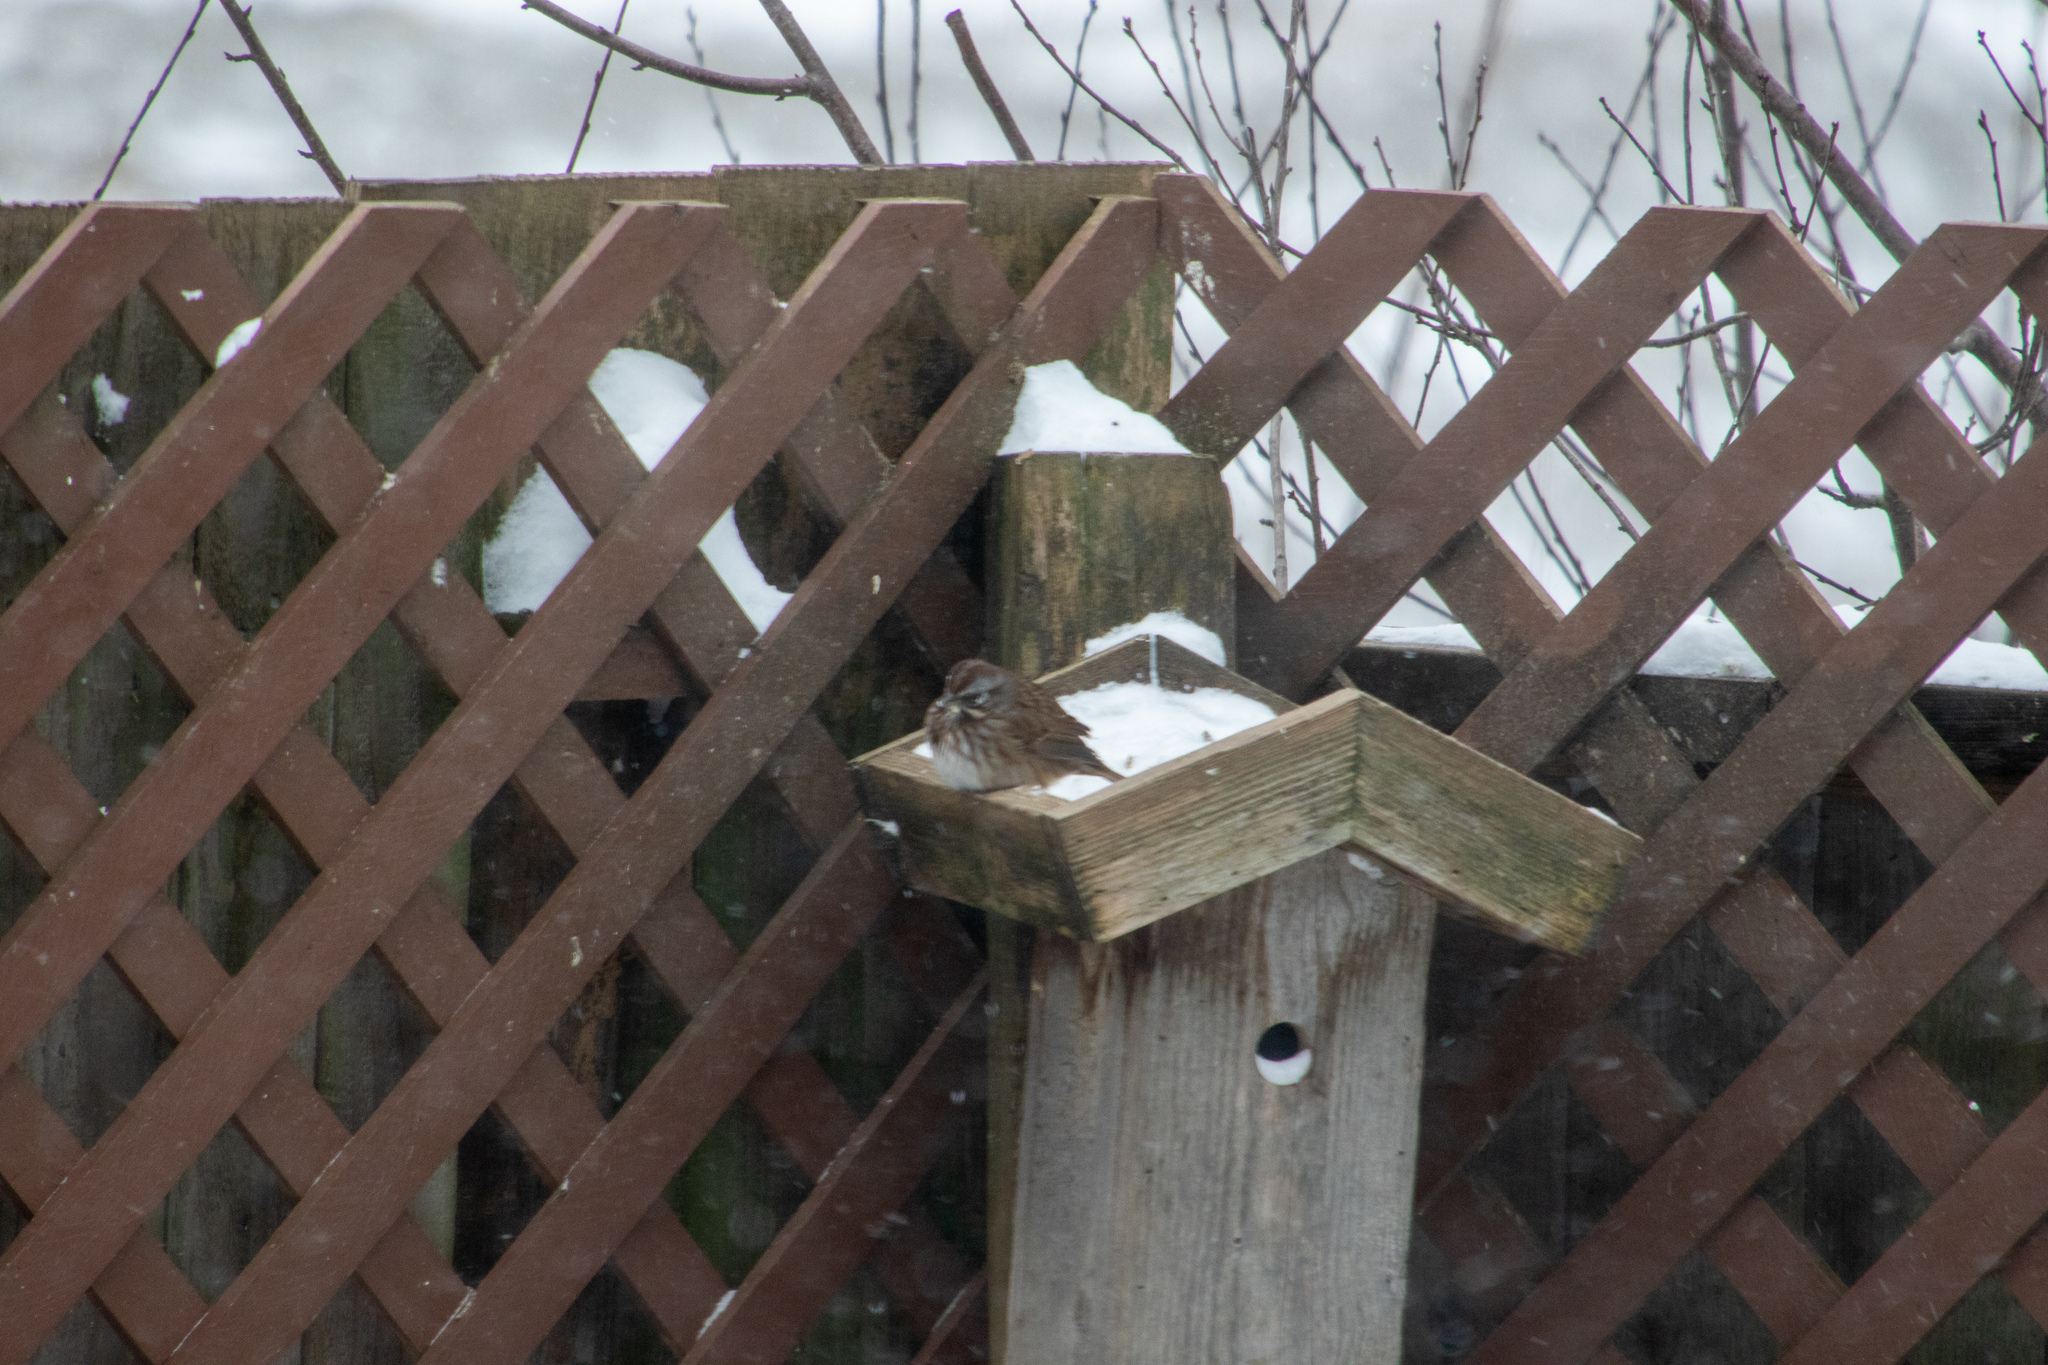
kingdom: Animalia
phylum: Chordata
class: Aves
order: Passeriformes
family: Passerellidae
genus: Melospiza
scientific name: Melospiza melodia
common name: Song sparrow
